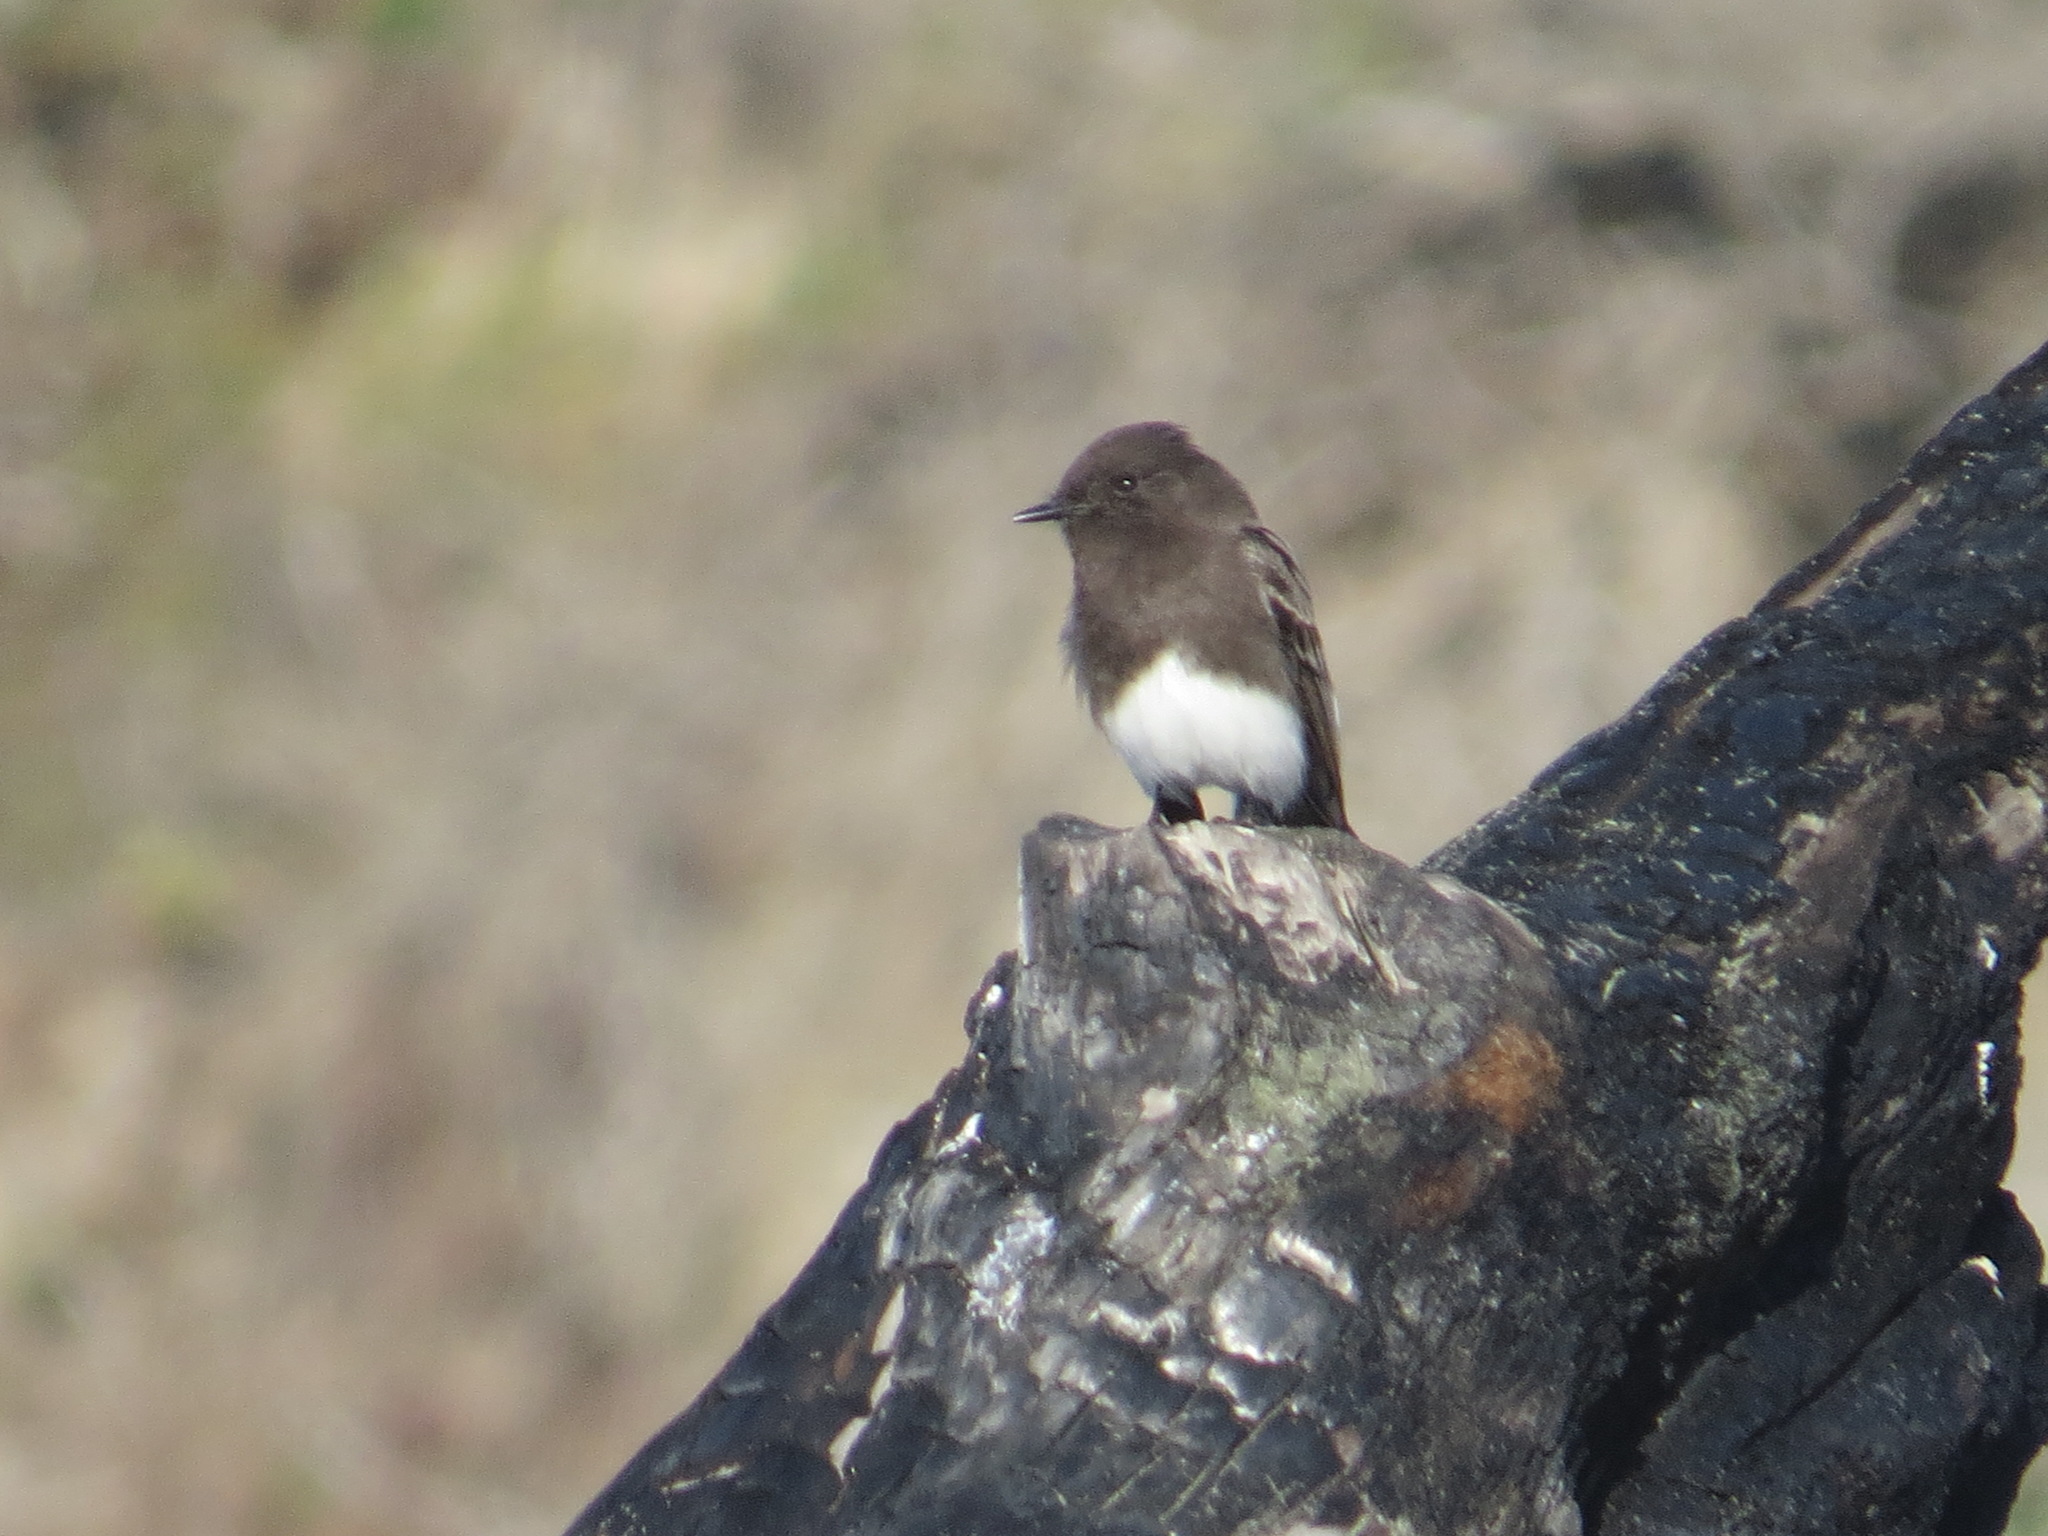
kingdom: Animalia
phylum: Chordata
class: Aves
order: Passeriformes
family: Tyrannidae
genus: Sayornis
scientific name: Sayornis nigricans
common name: Black phoebe
